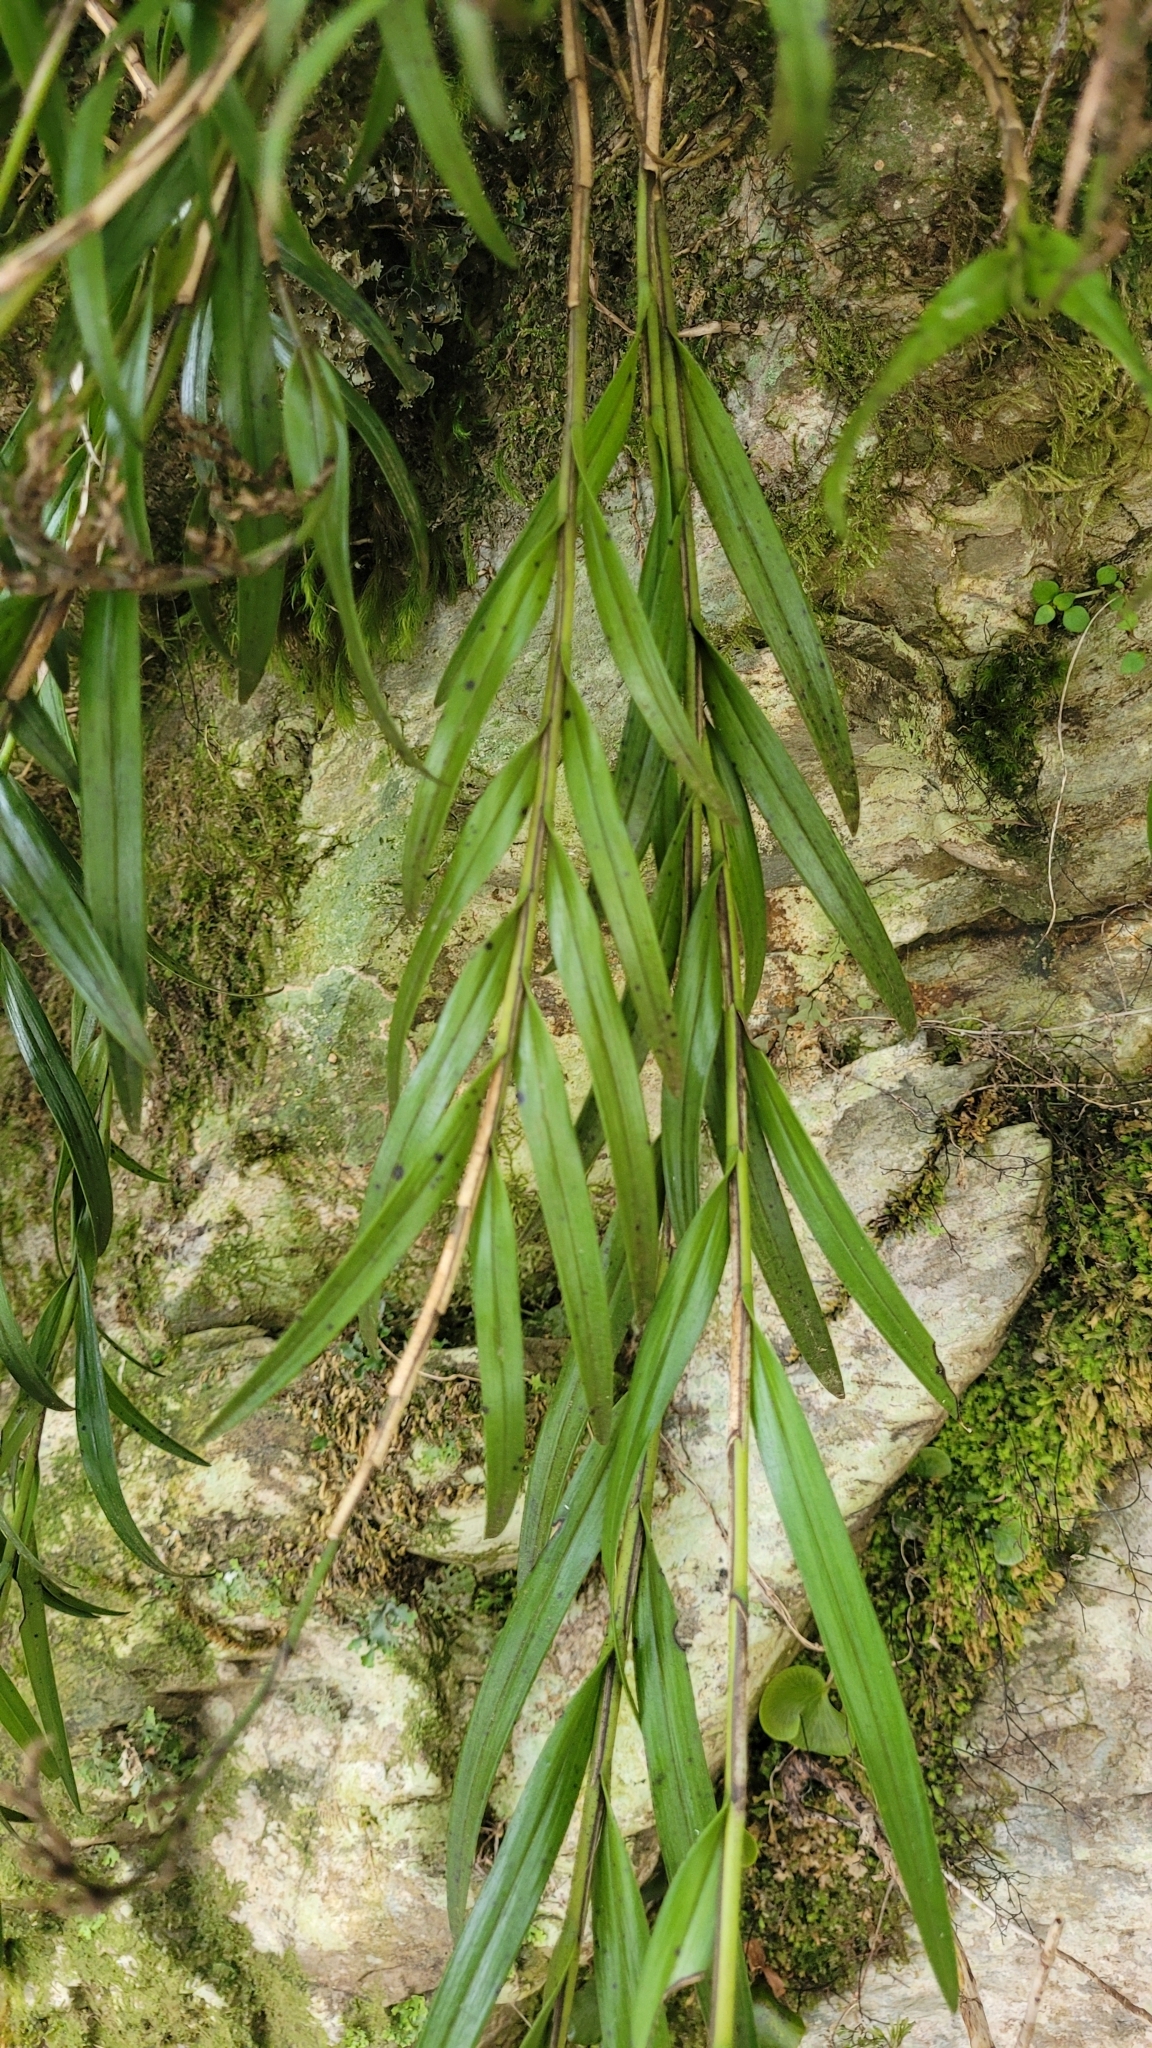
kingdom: Plantae
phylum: Tracheophyta
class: Liliopsida
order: Asparagales
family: Orchidaceae
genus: Earina
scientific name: Earina autumnalis
